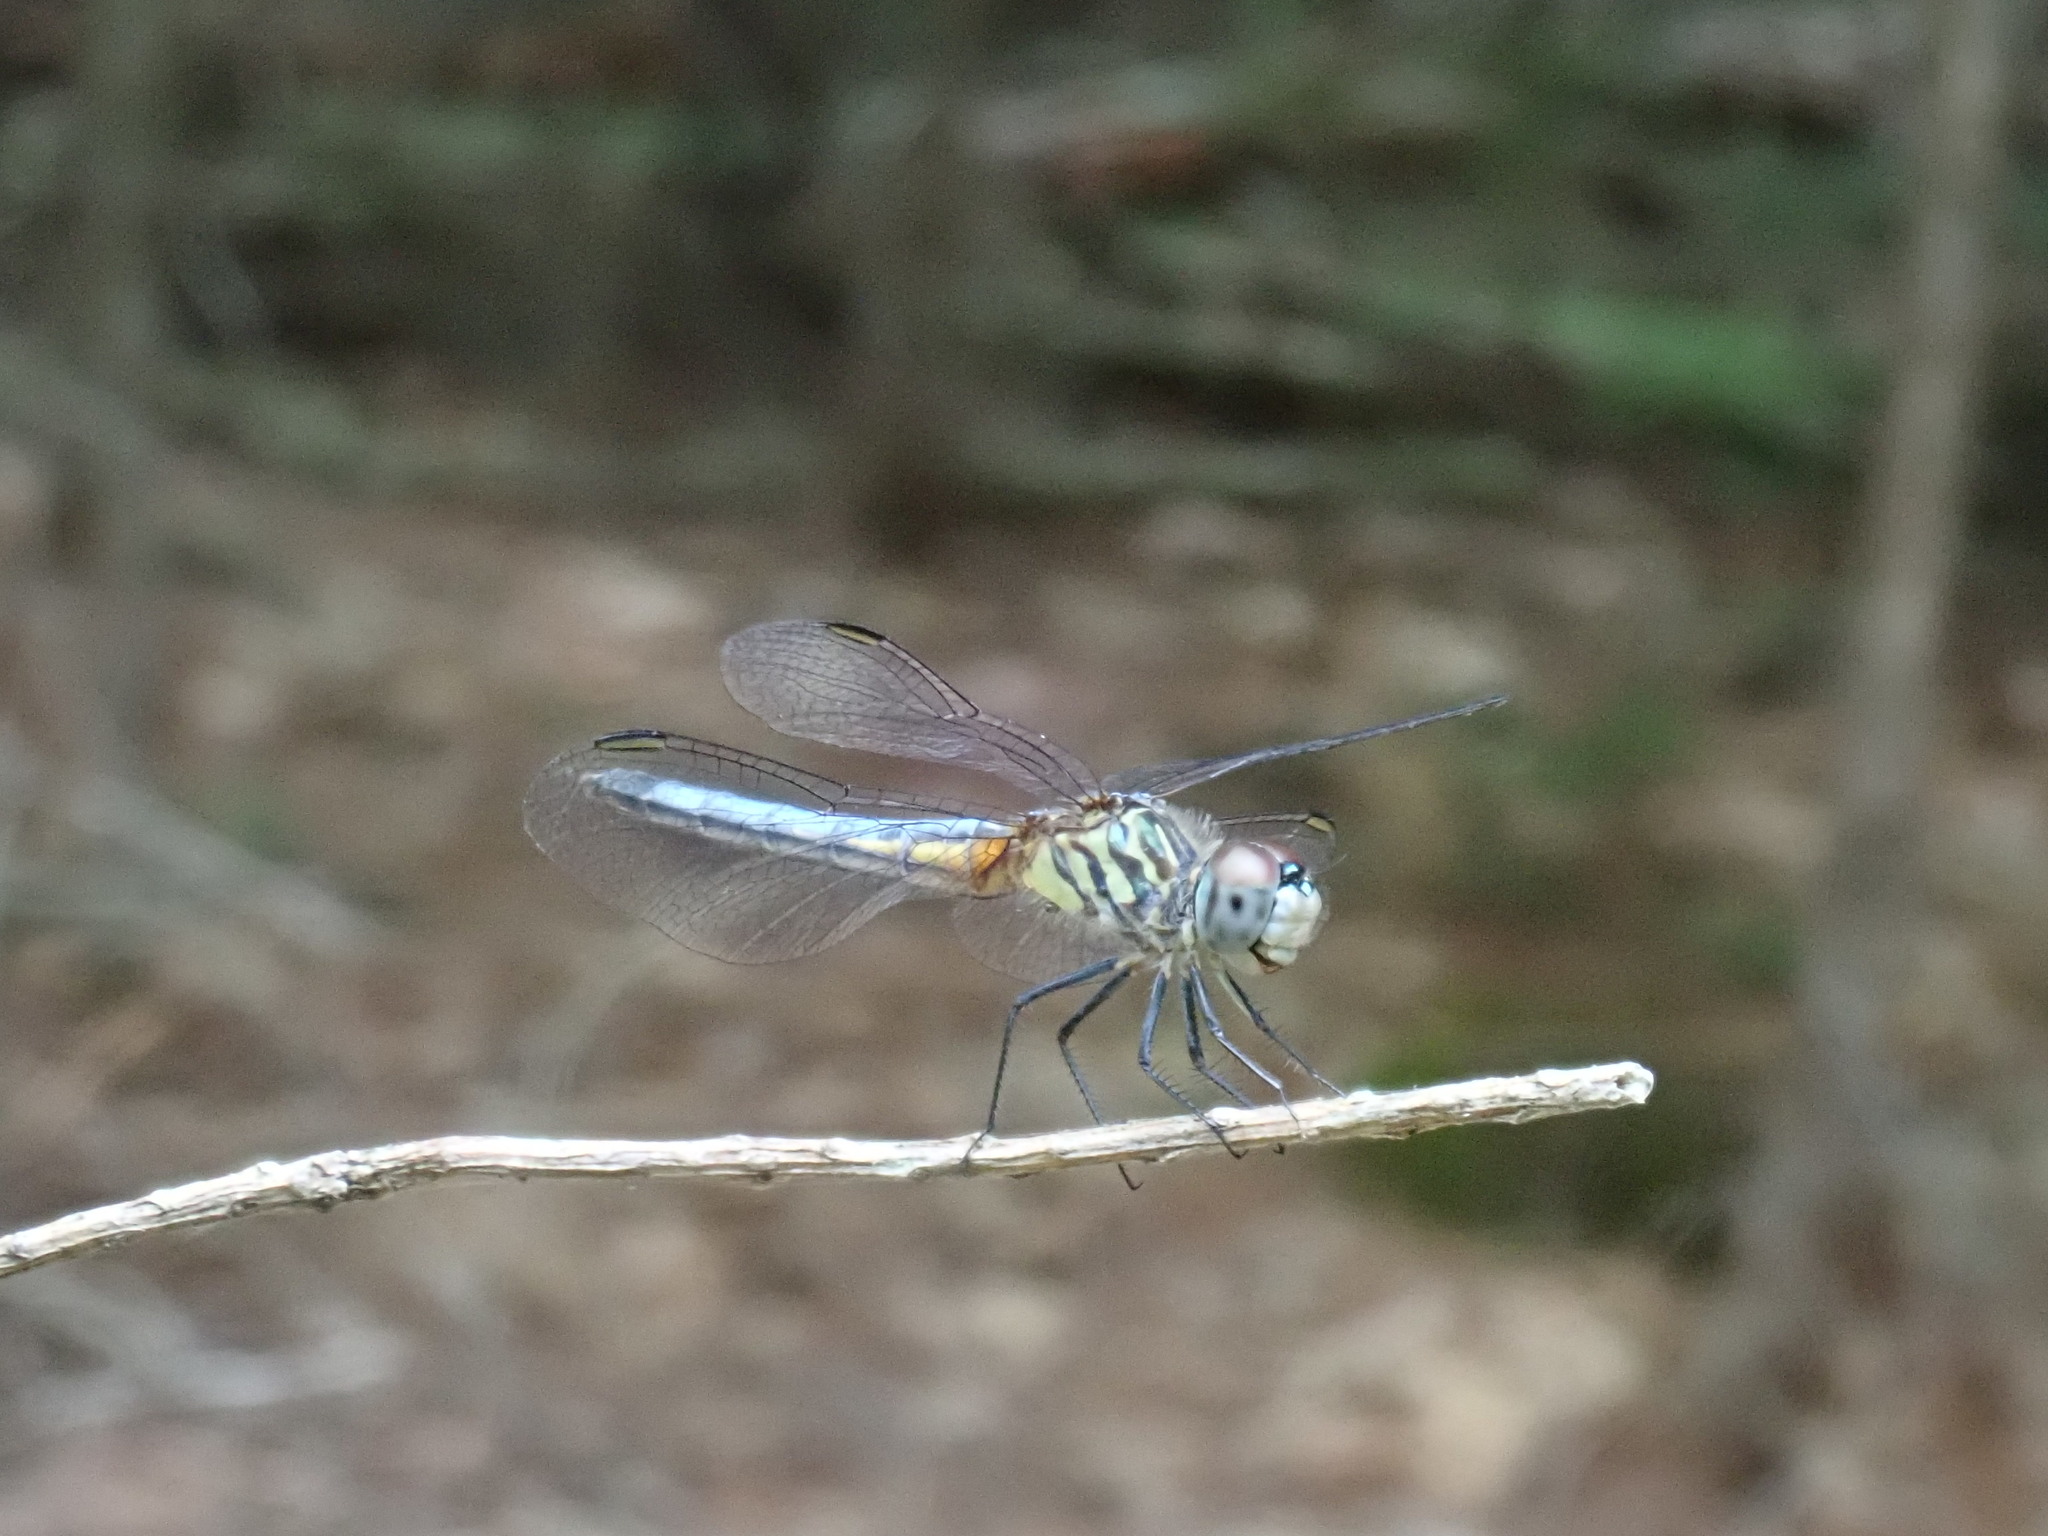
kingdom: Animalia
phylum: Arthropoda
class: Insecta
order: Odonata
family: Libellulidae
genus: Pachydiplax
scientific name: Pachydiplax longipennis
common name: Blue dasher
